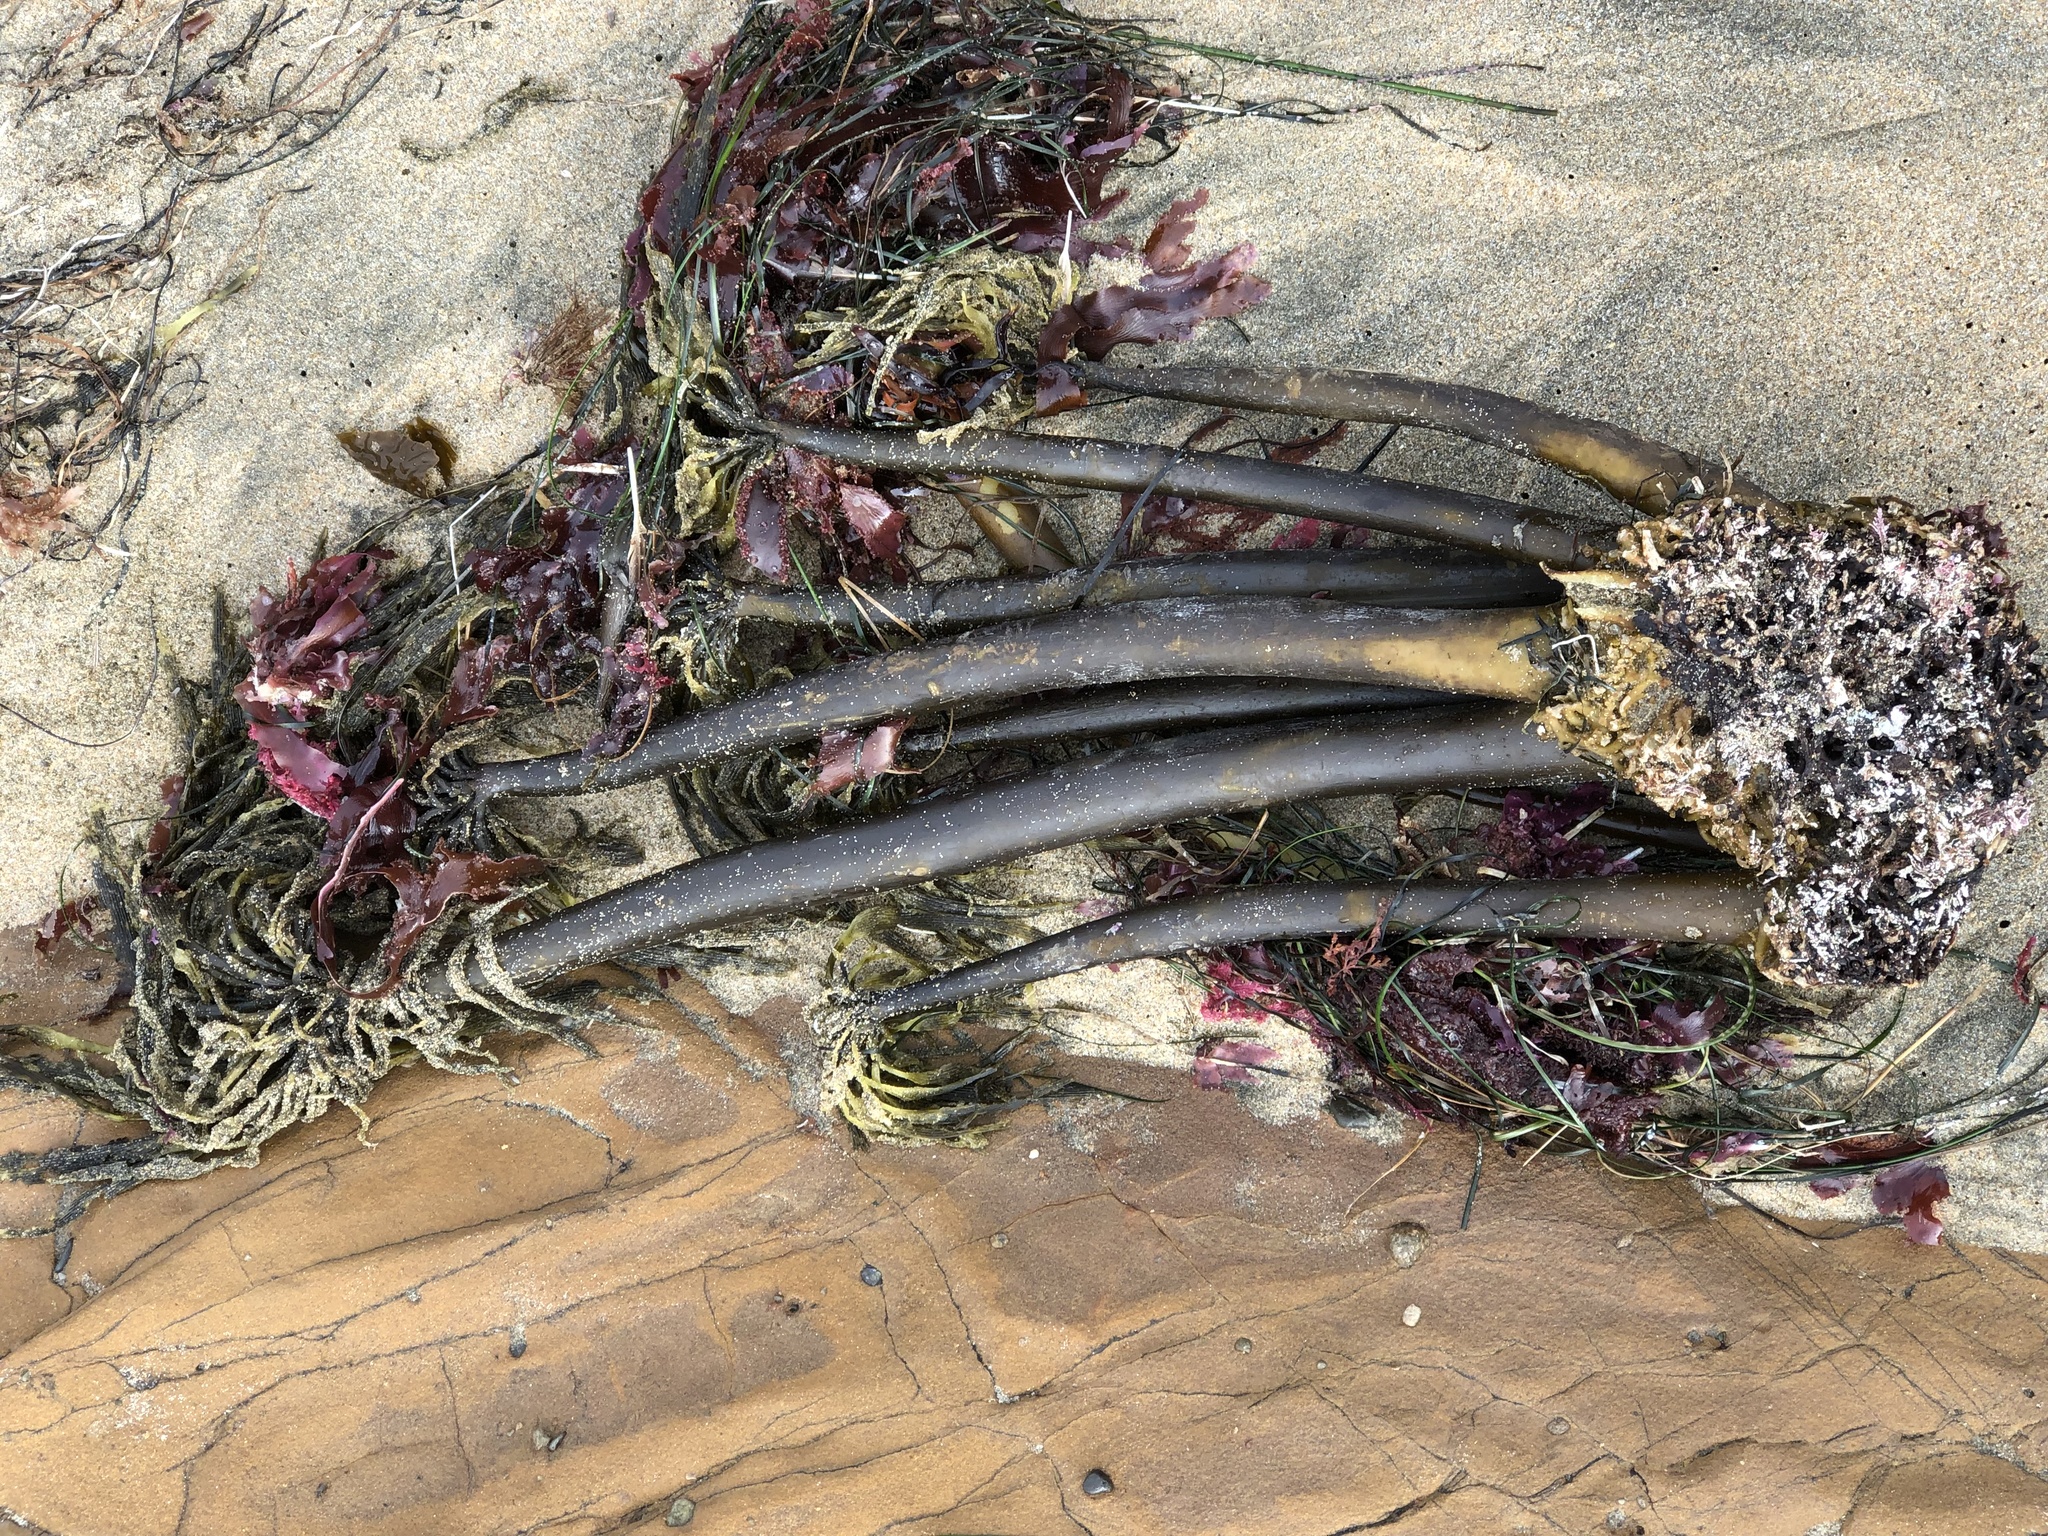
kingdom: Chromista
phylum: Ochrophyta
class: Phaeophyceae
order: Laminariales
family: Laminariaceae
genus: Postelsia
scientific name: Postelsia palmiformis
